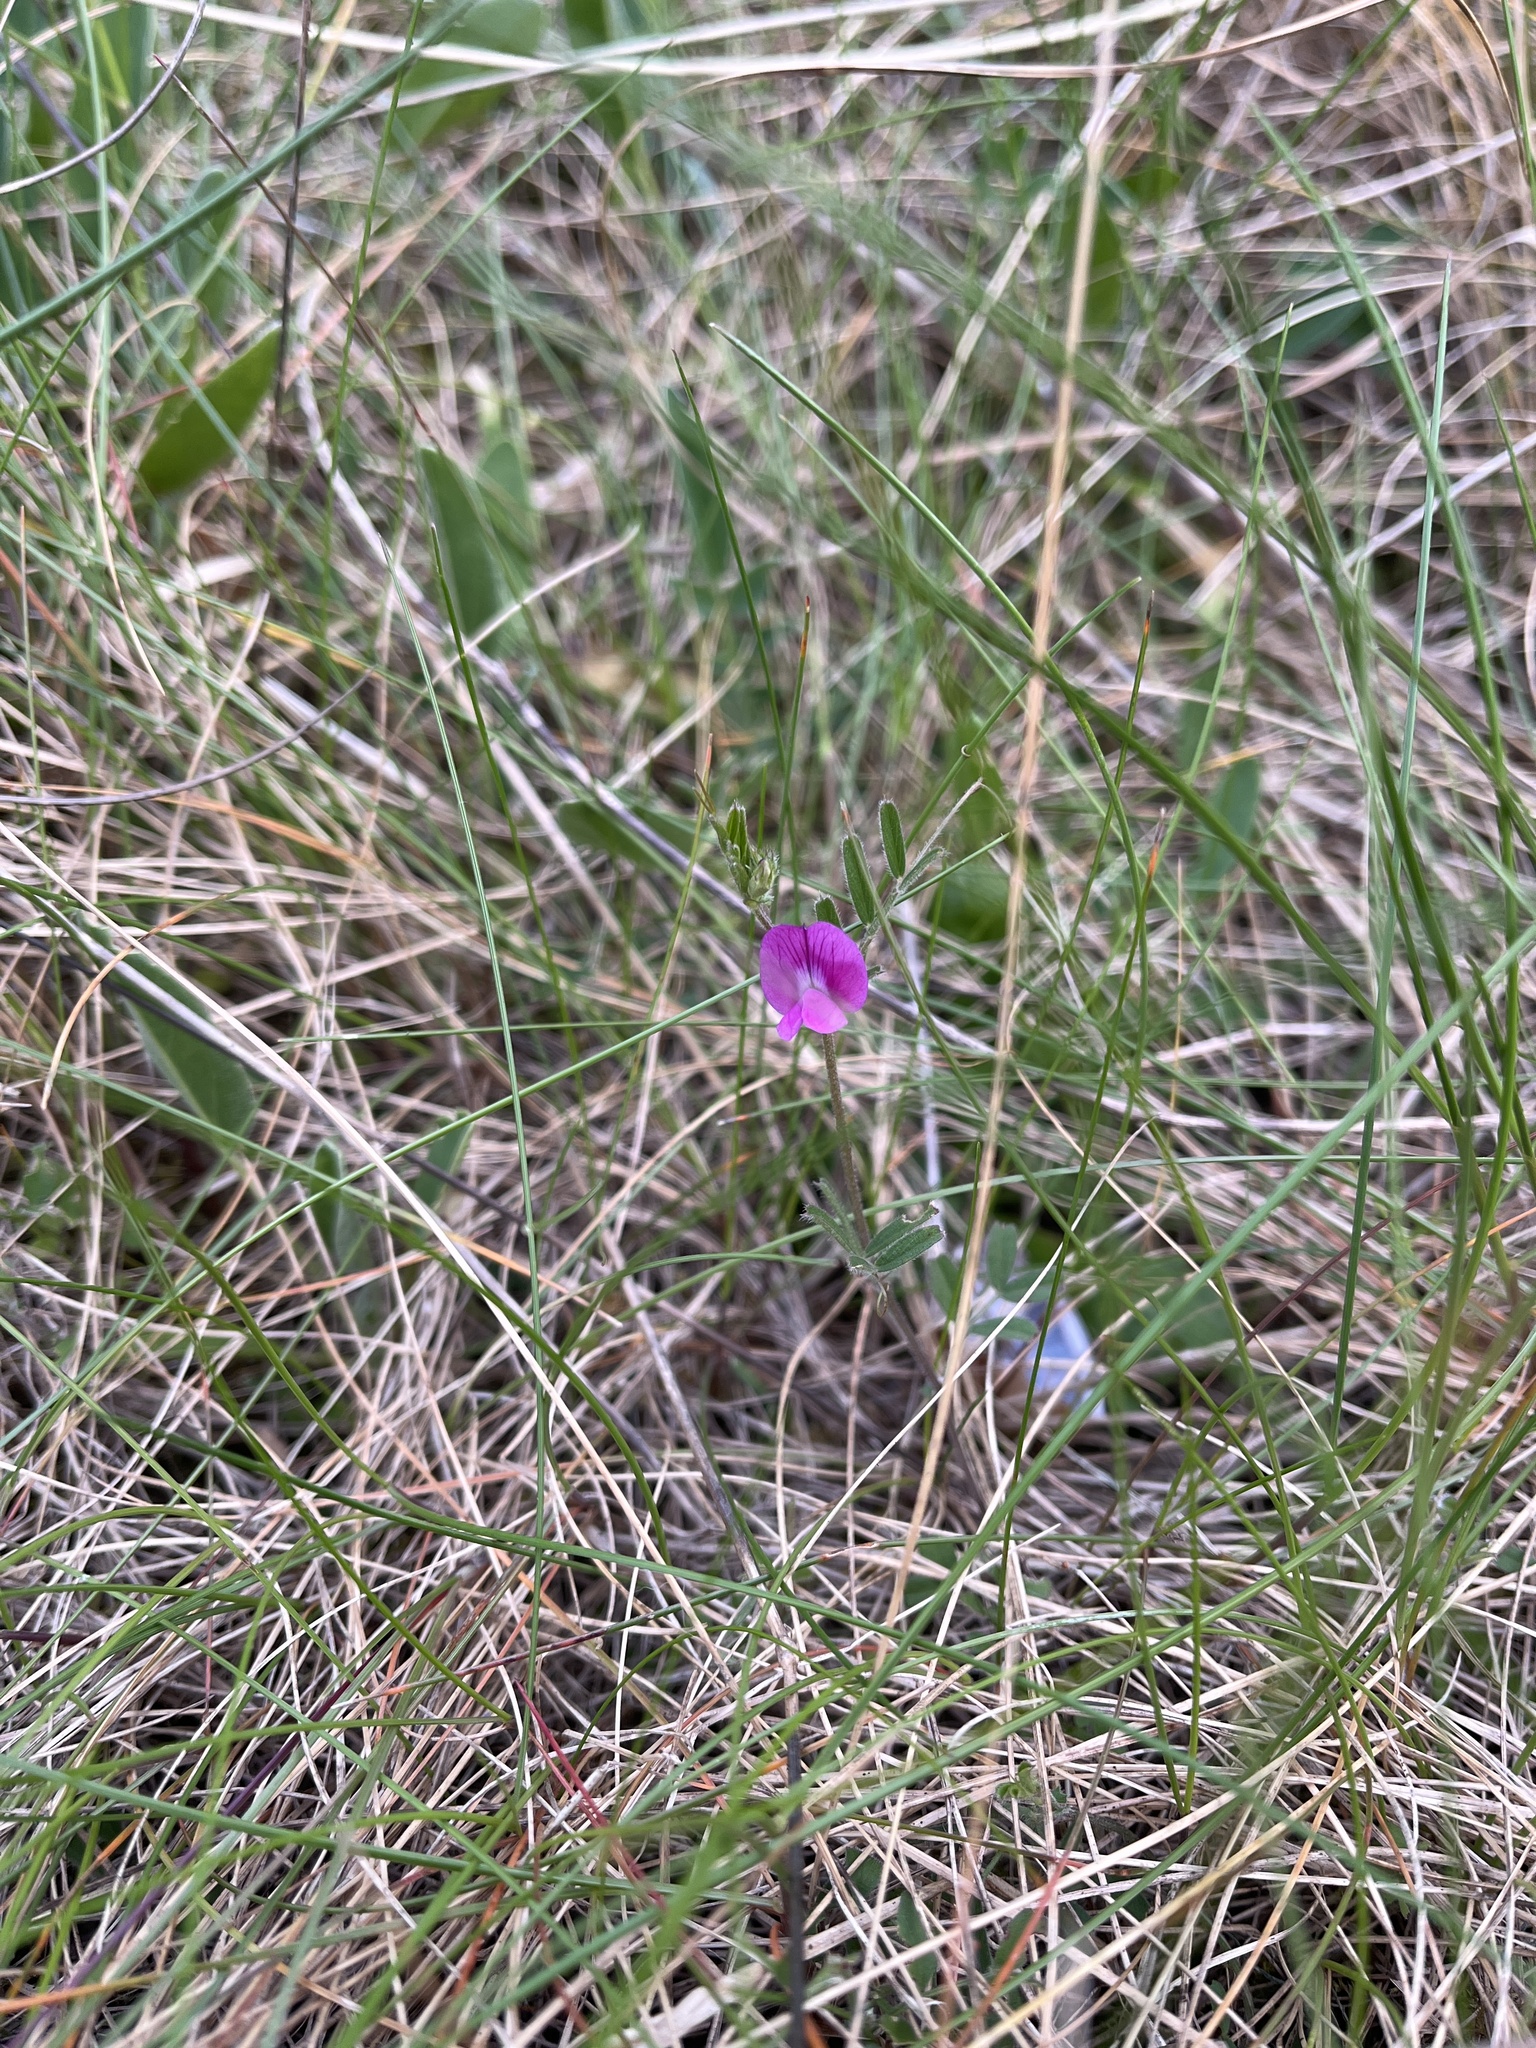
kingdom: Plantae
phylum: Tracheophyta
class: Magnoliopsida
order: Fabales
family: Fabaceae
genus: Vicia
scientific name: Vicia sativa
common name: Garden vetch
